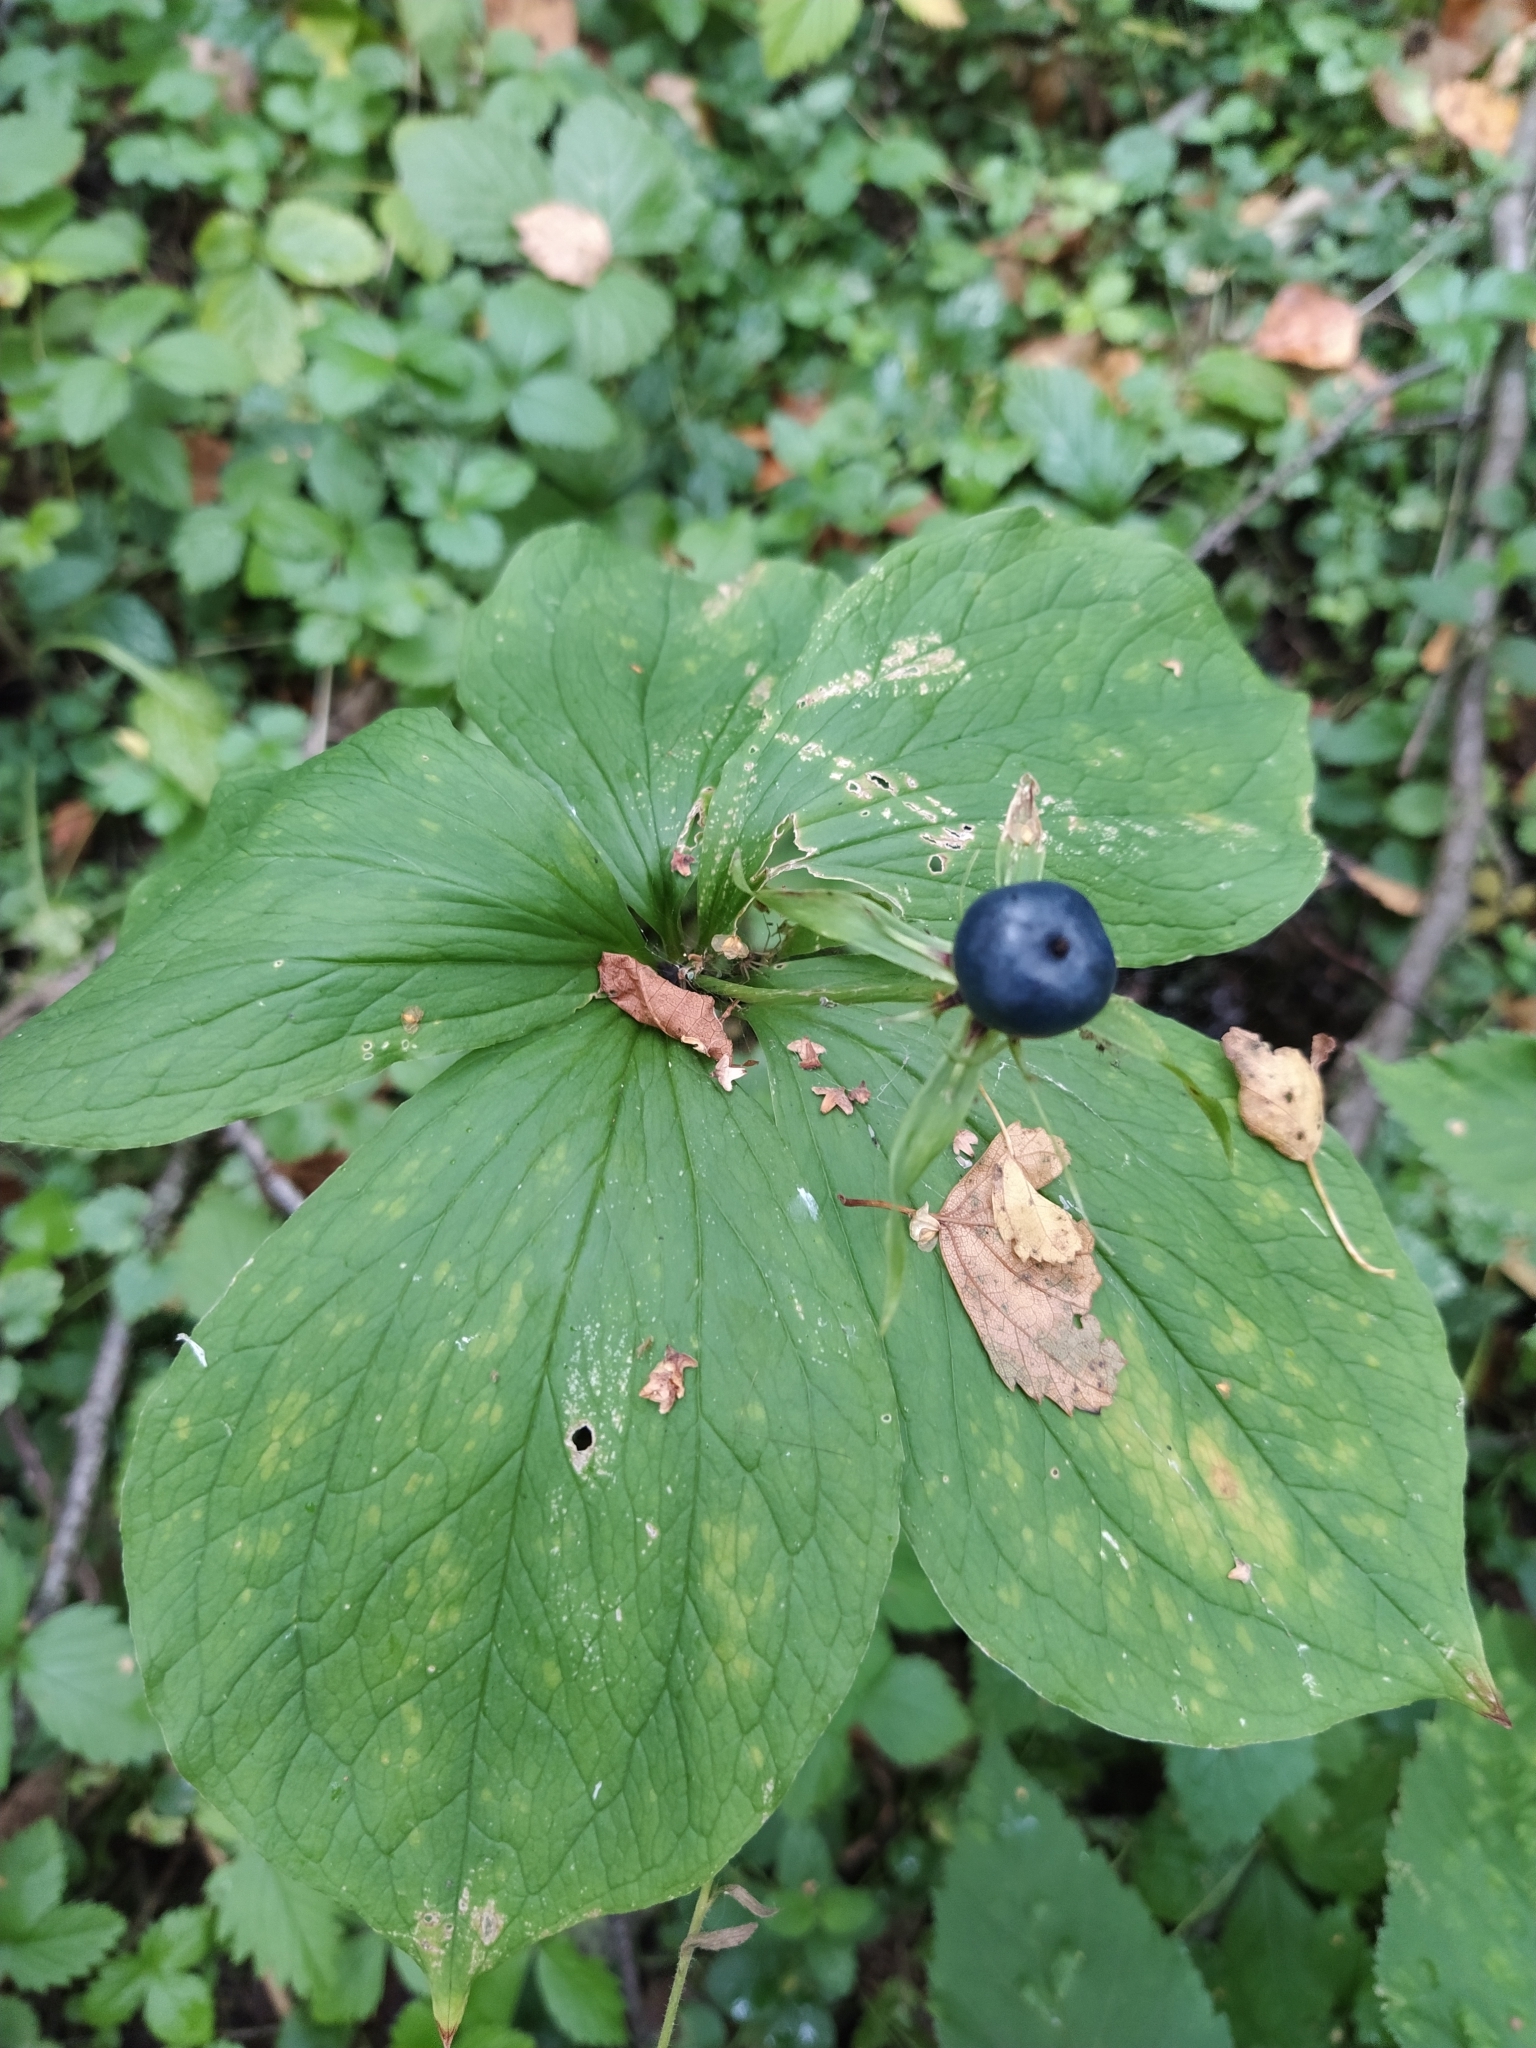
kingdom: Plantae
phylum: Tracheophyta
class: Liliopsida
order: Liliales
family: Melanthiaceae
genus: Paris
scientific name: Paris quadrifolia
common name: Herb-paris
